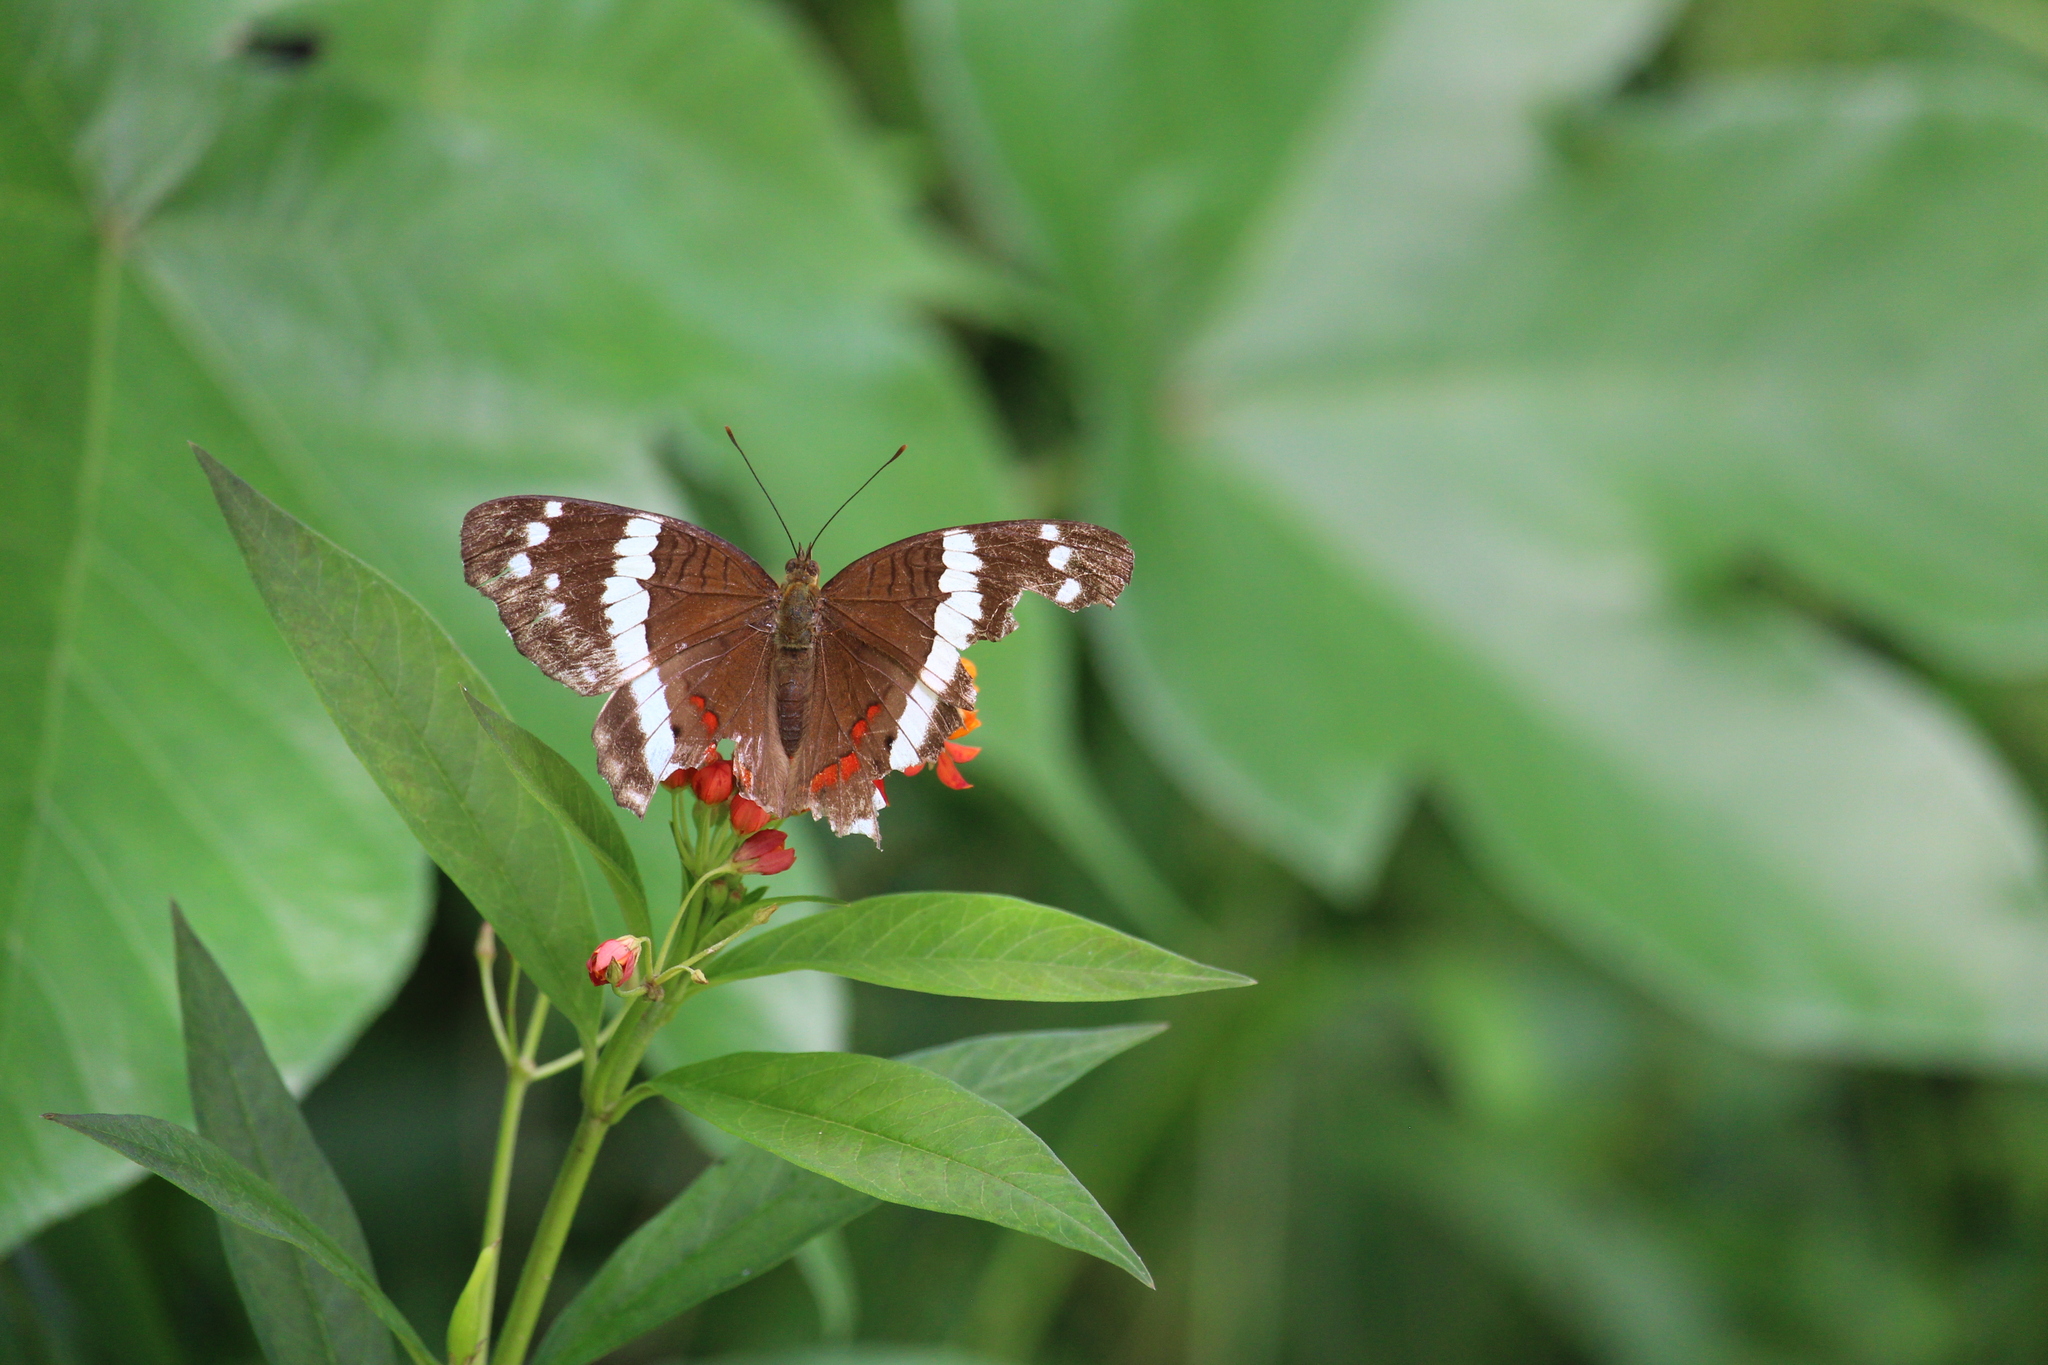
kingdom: Animalia
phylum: Arthropoda
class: Insecta
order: Lepidoptera
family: Nymphalidae
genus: Anartia
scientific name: Anartia fatima
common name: Banded peacock
